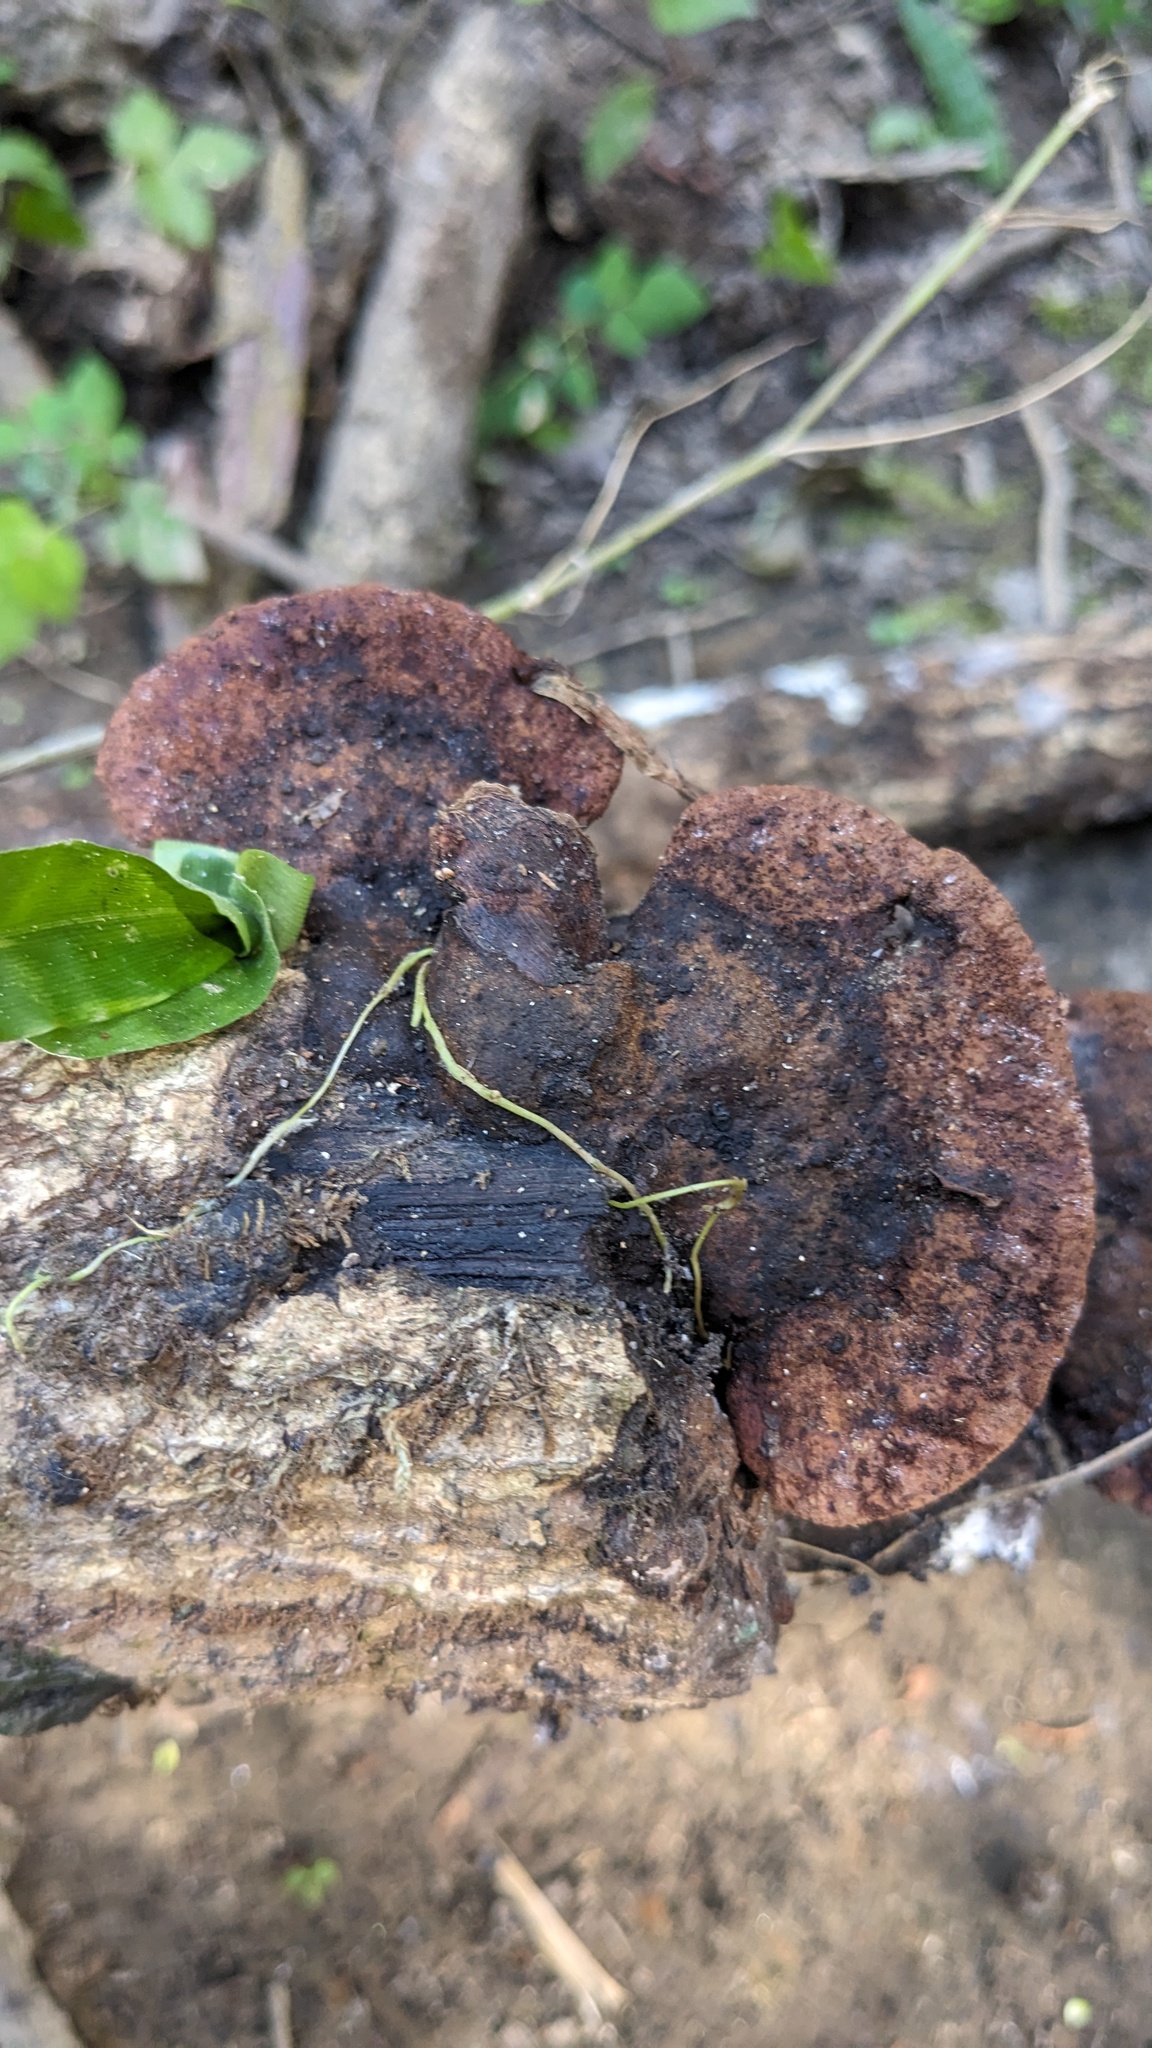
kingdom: Fungi
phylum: Basidiomycota
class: Agaricomycetes
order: Hymenochaetales
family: Hymenochaetaceae
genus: Phellinus
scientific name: Phellinus gilvus
